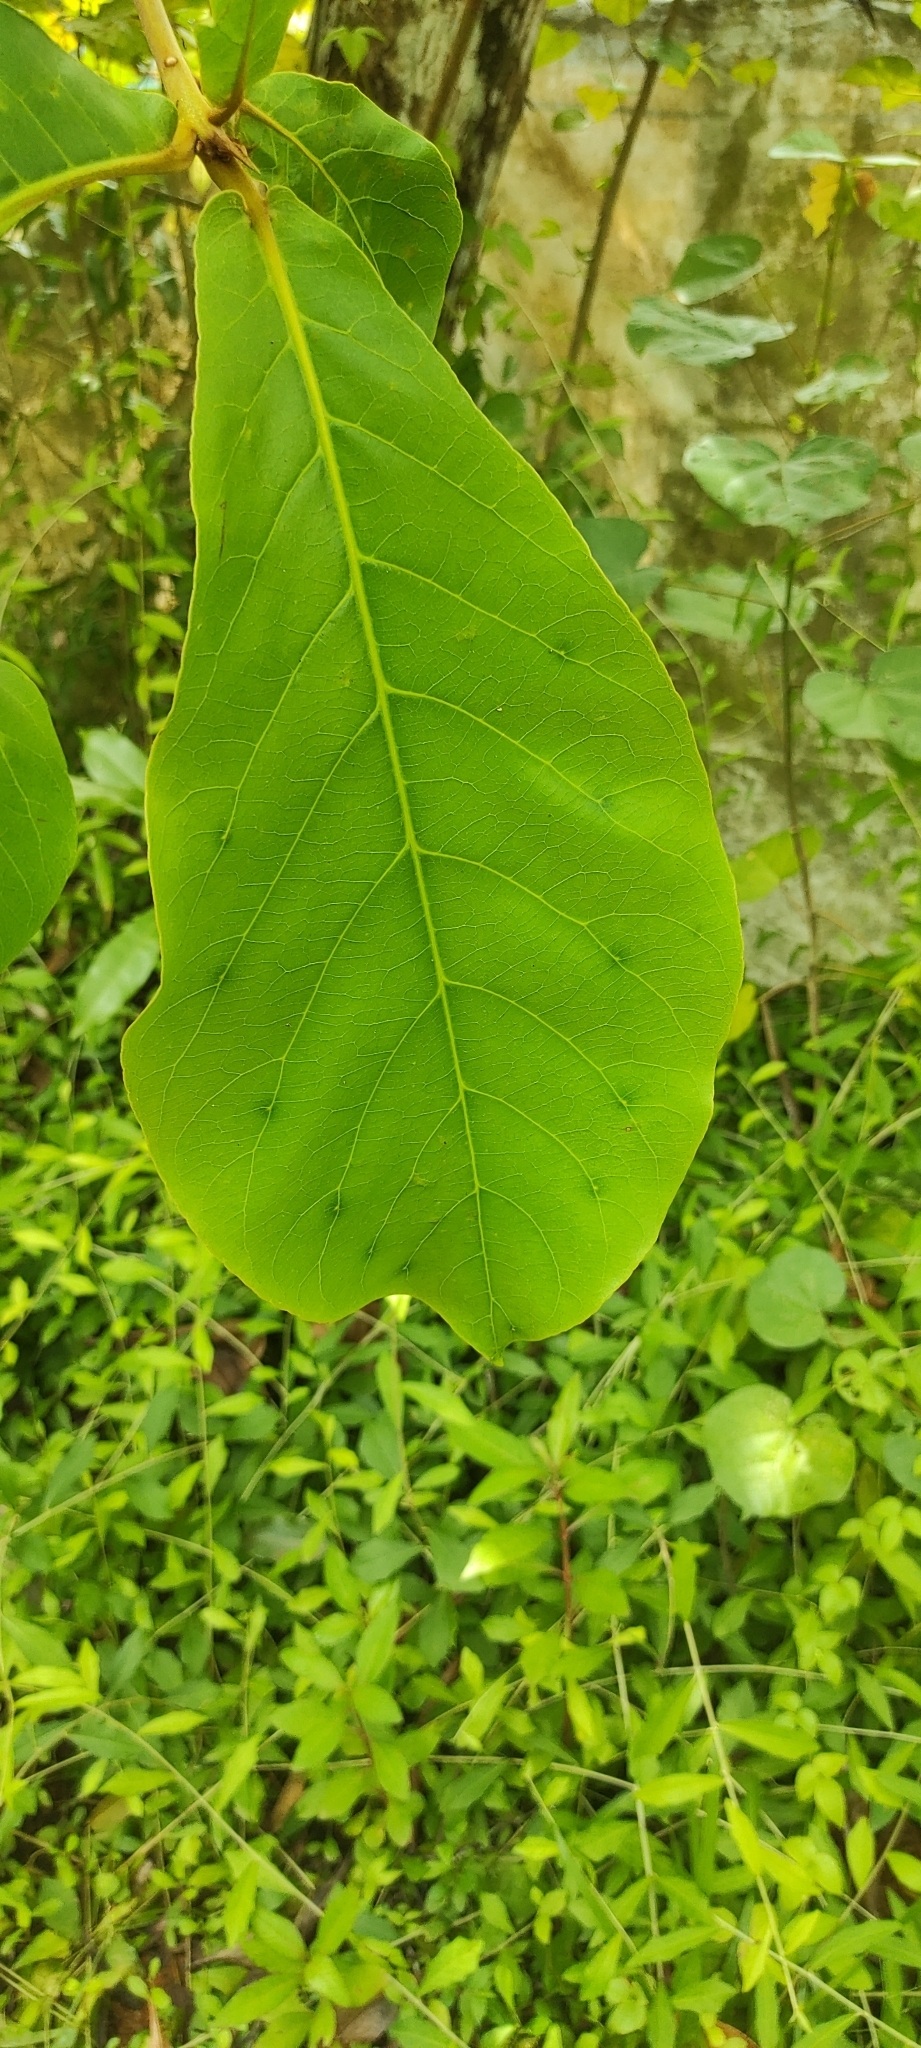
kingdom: Plantae
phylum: Tracheophyta
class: Magnoliopsida
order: Myrtales
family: Combretaceae
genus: Terminalia
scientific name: Terminalia catappa
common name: Tropical almond
